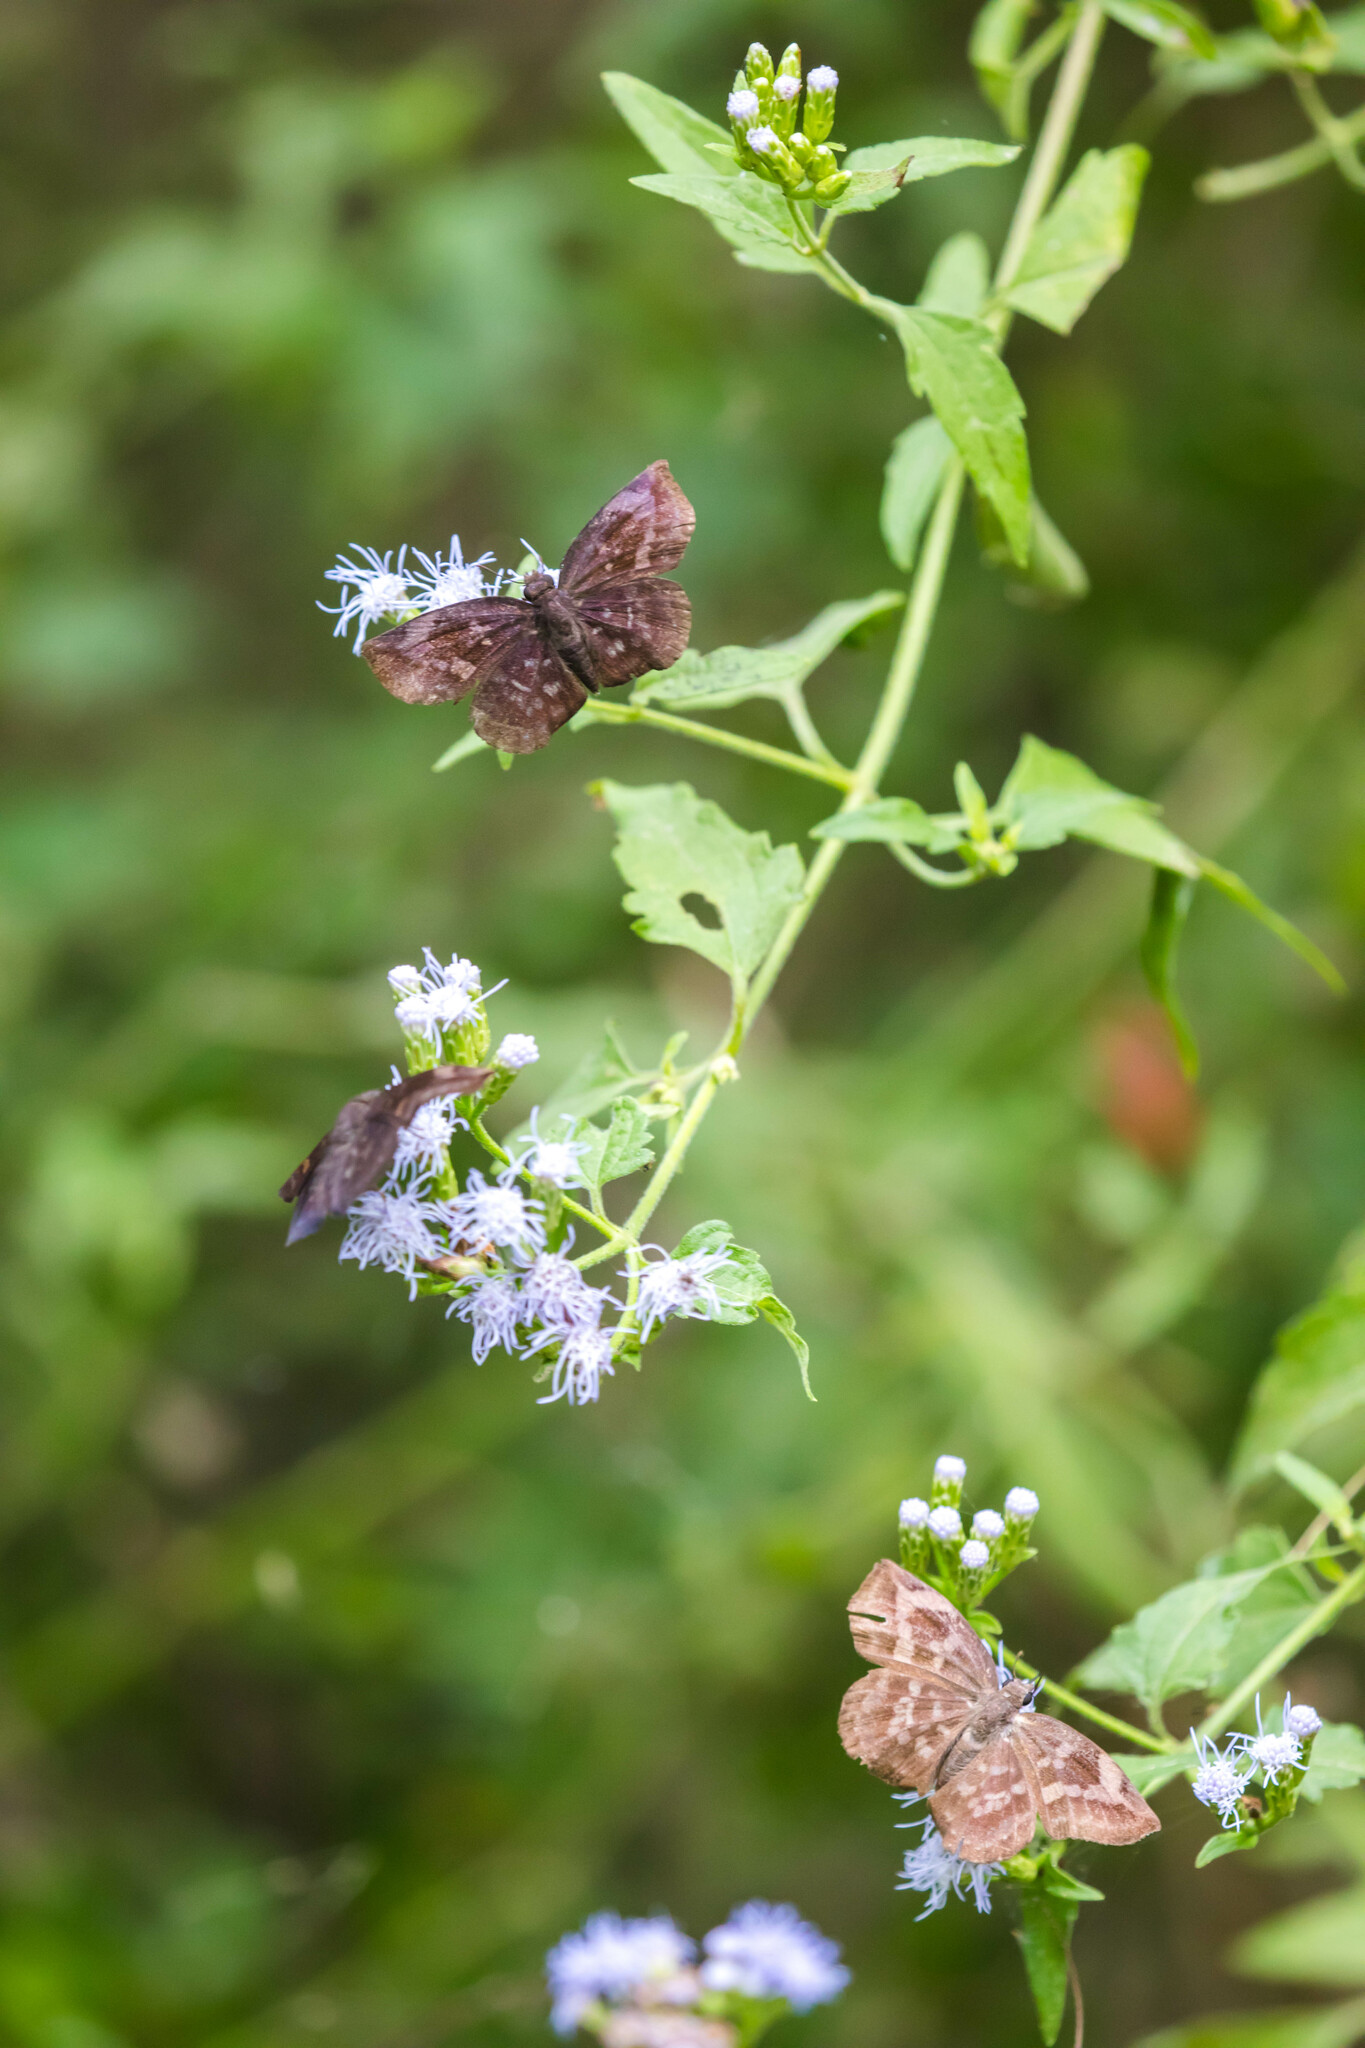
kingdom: Animalia
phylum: Arthropoda
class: Insecta
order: Lepidoptera
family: Hesperiidae
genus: Achlyodes
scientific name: Achlyodes thraso
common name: Sickle-winged skipper
